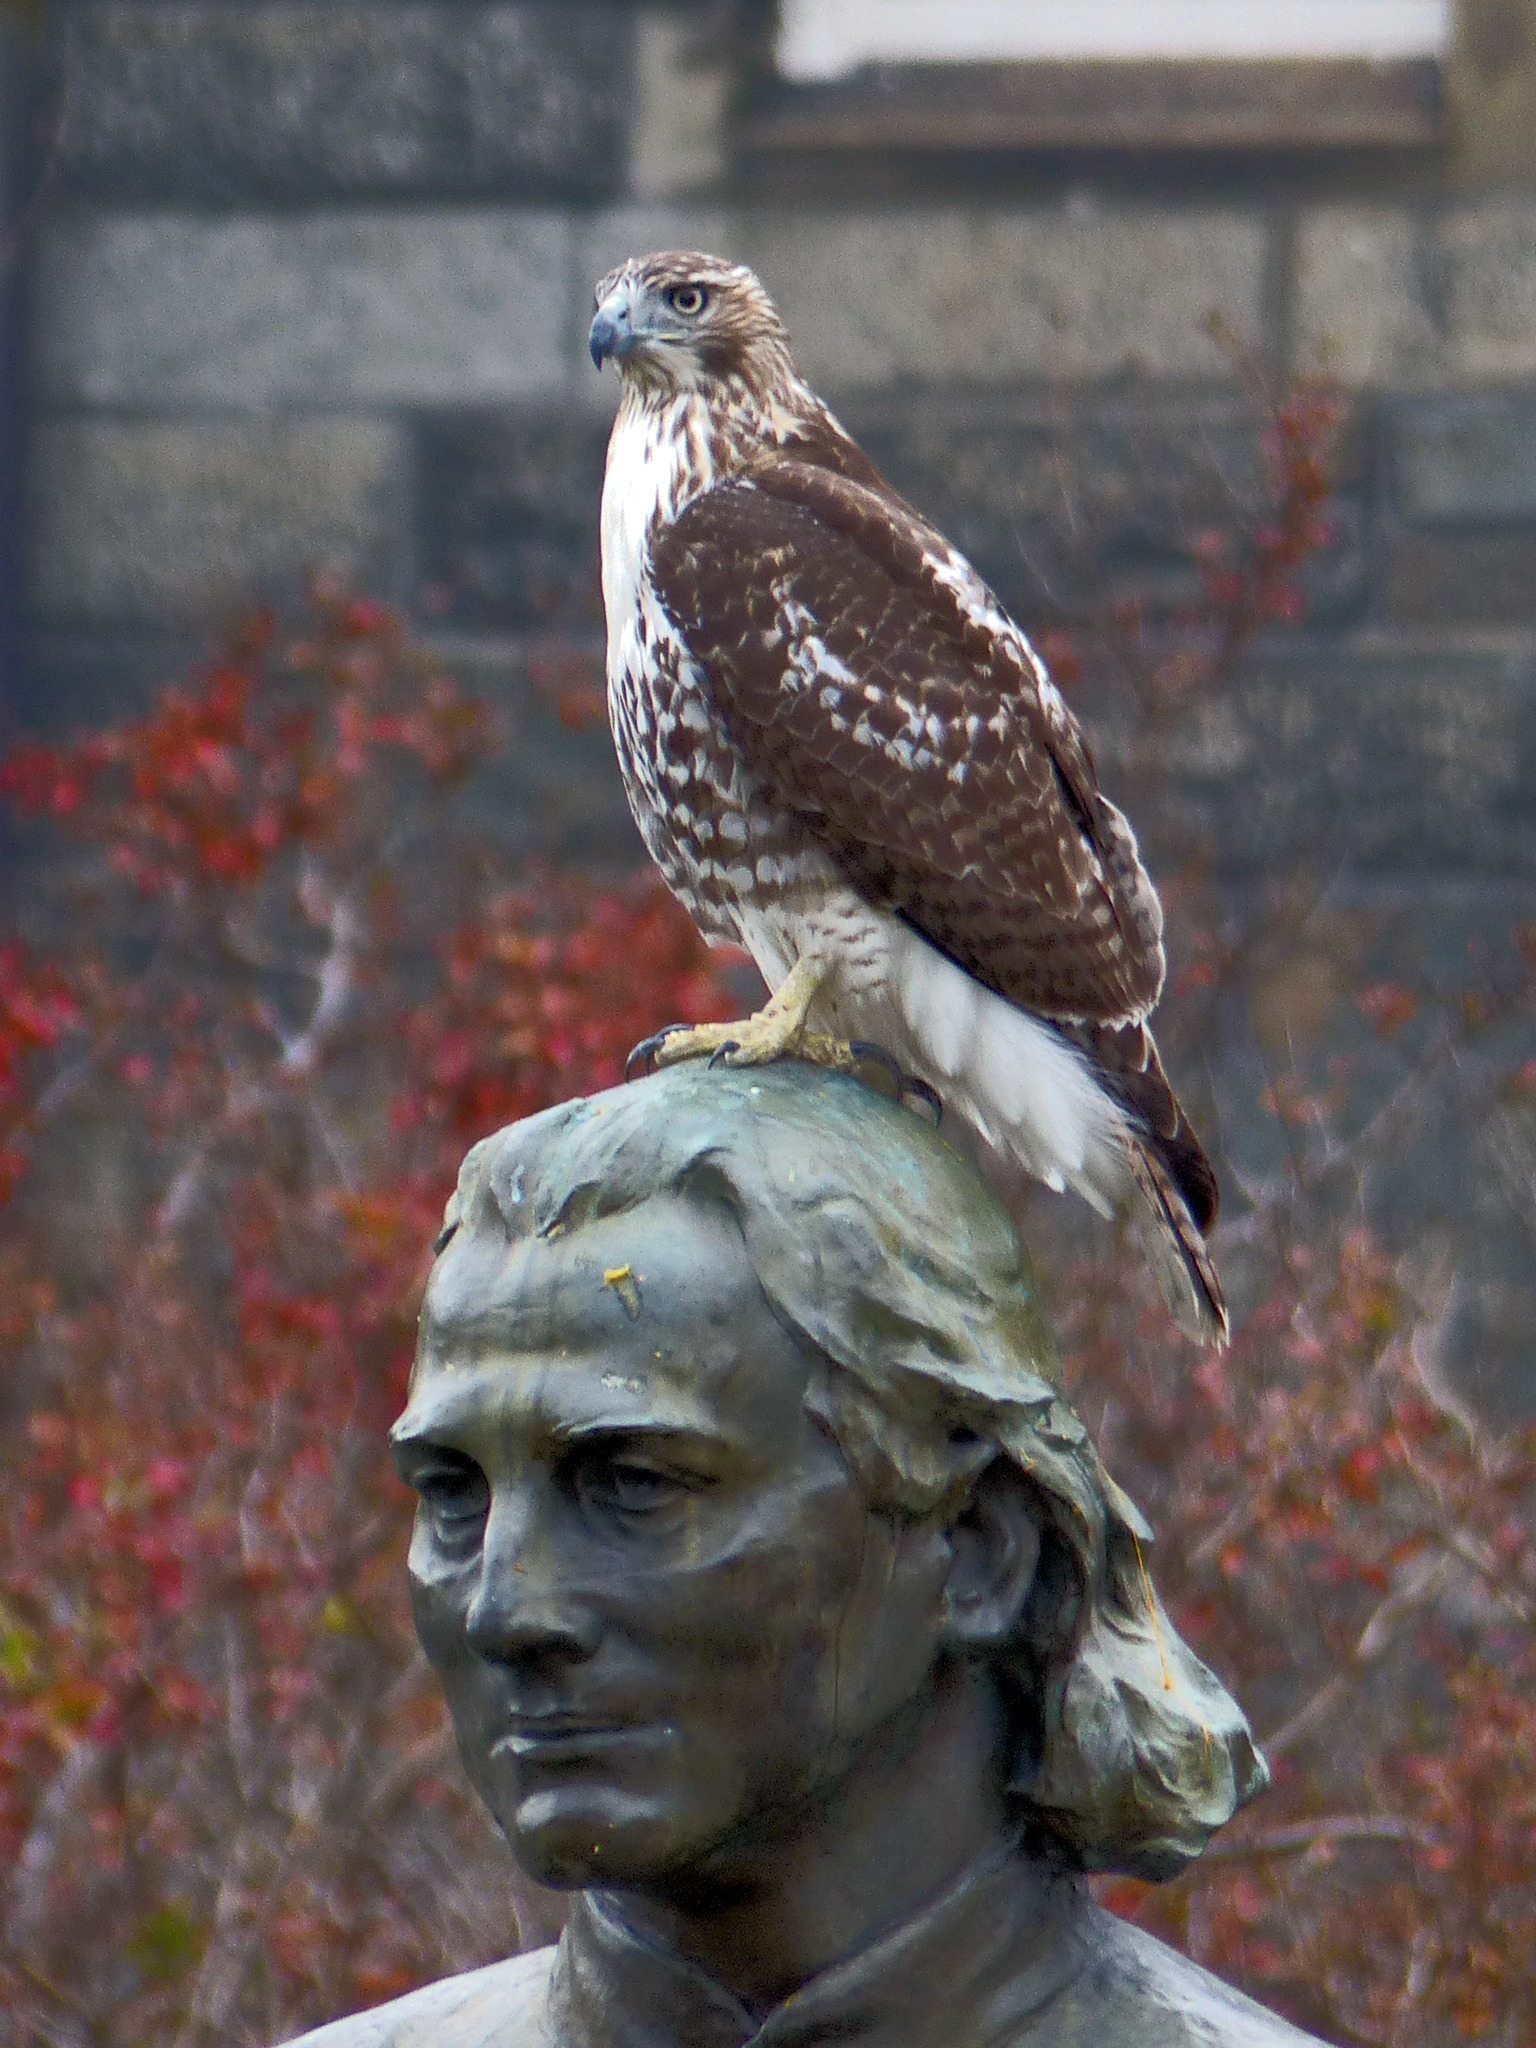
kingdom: Animalia
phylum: Chordata
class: Aves
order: Accipitriformes
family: Accipitridae
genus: Buteo
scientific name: Buteo jamaicensis
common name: Red-tailed hawk
